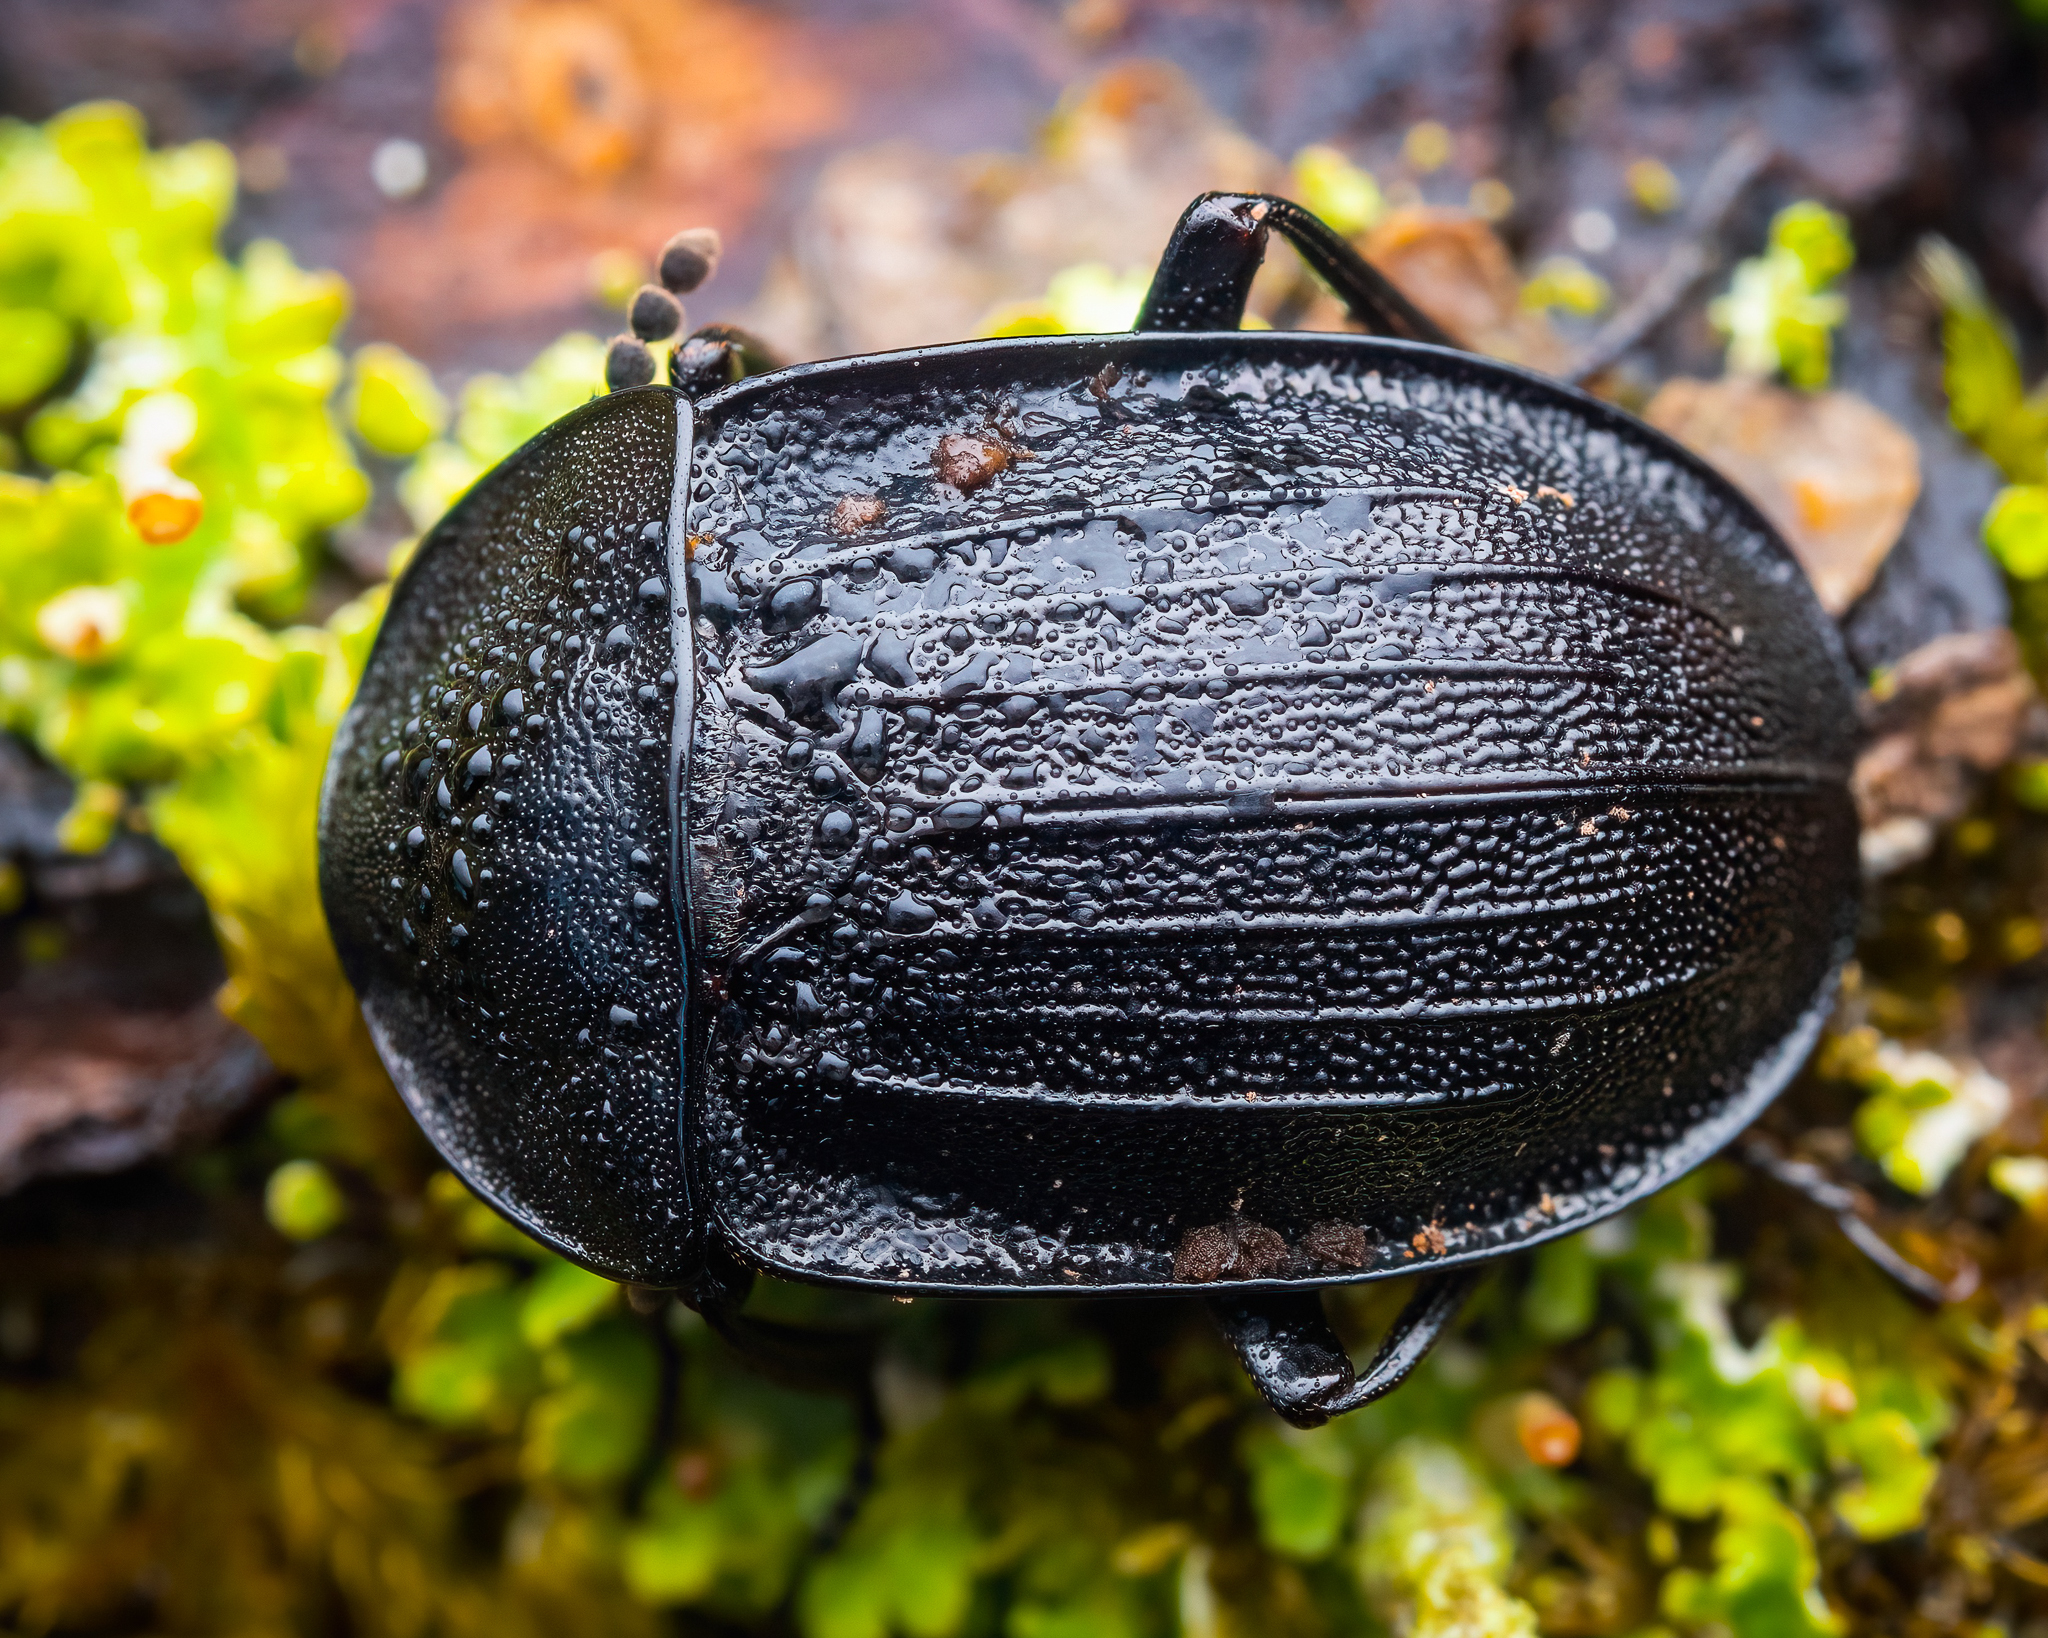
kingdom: Animalia
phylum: Arthropoda
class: Insecta
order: Coleoptera
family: Staphylinidae
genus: Silpha
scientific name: Silpha atrata
